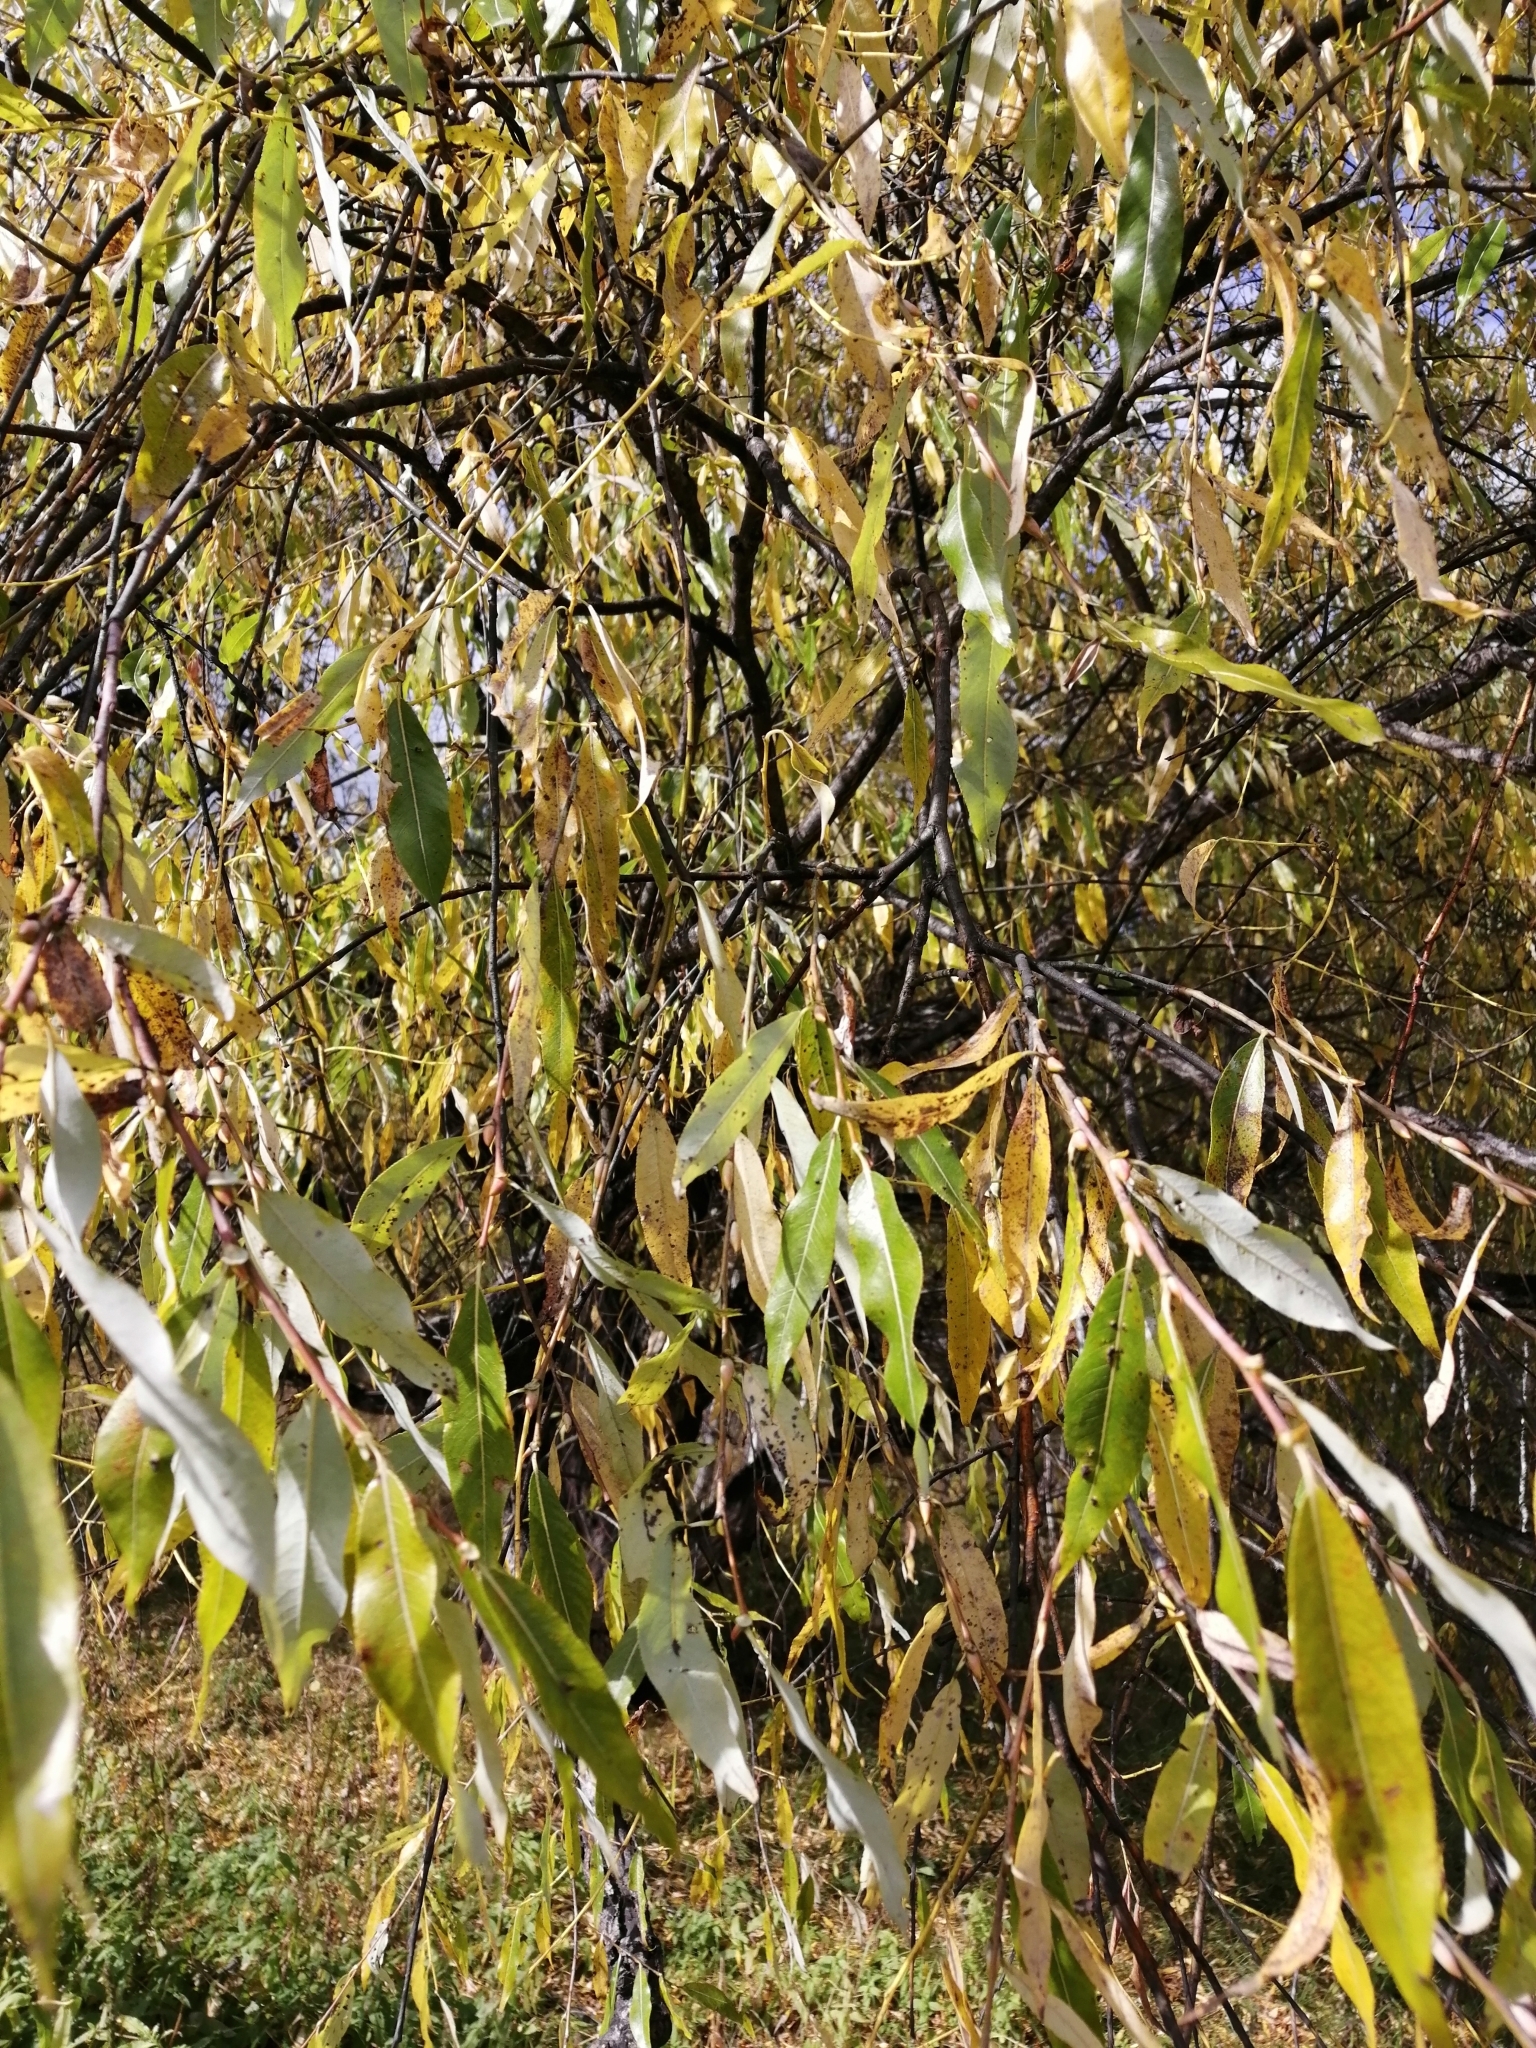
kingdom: Plantae
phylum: Tracheophyta
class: Magnoliopsida
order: Malpighiales
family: Salicaceae
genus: Salix
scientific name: Salix rorida
